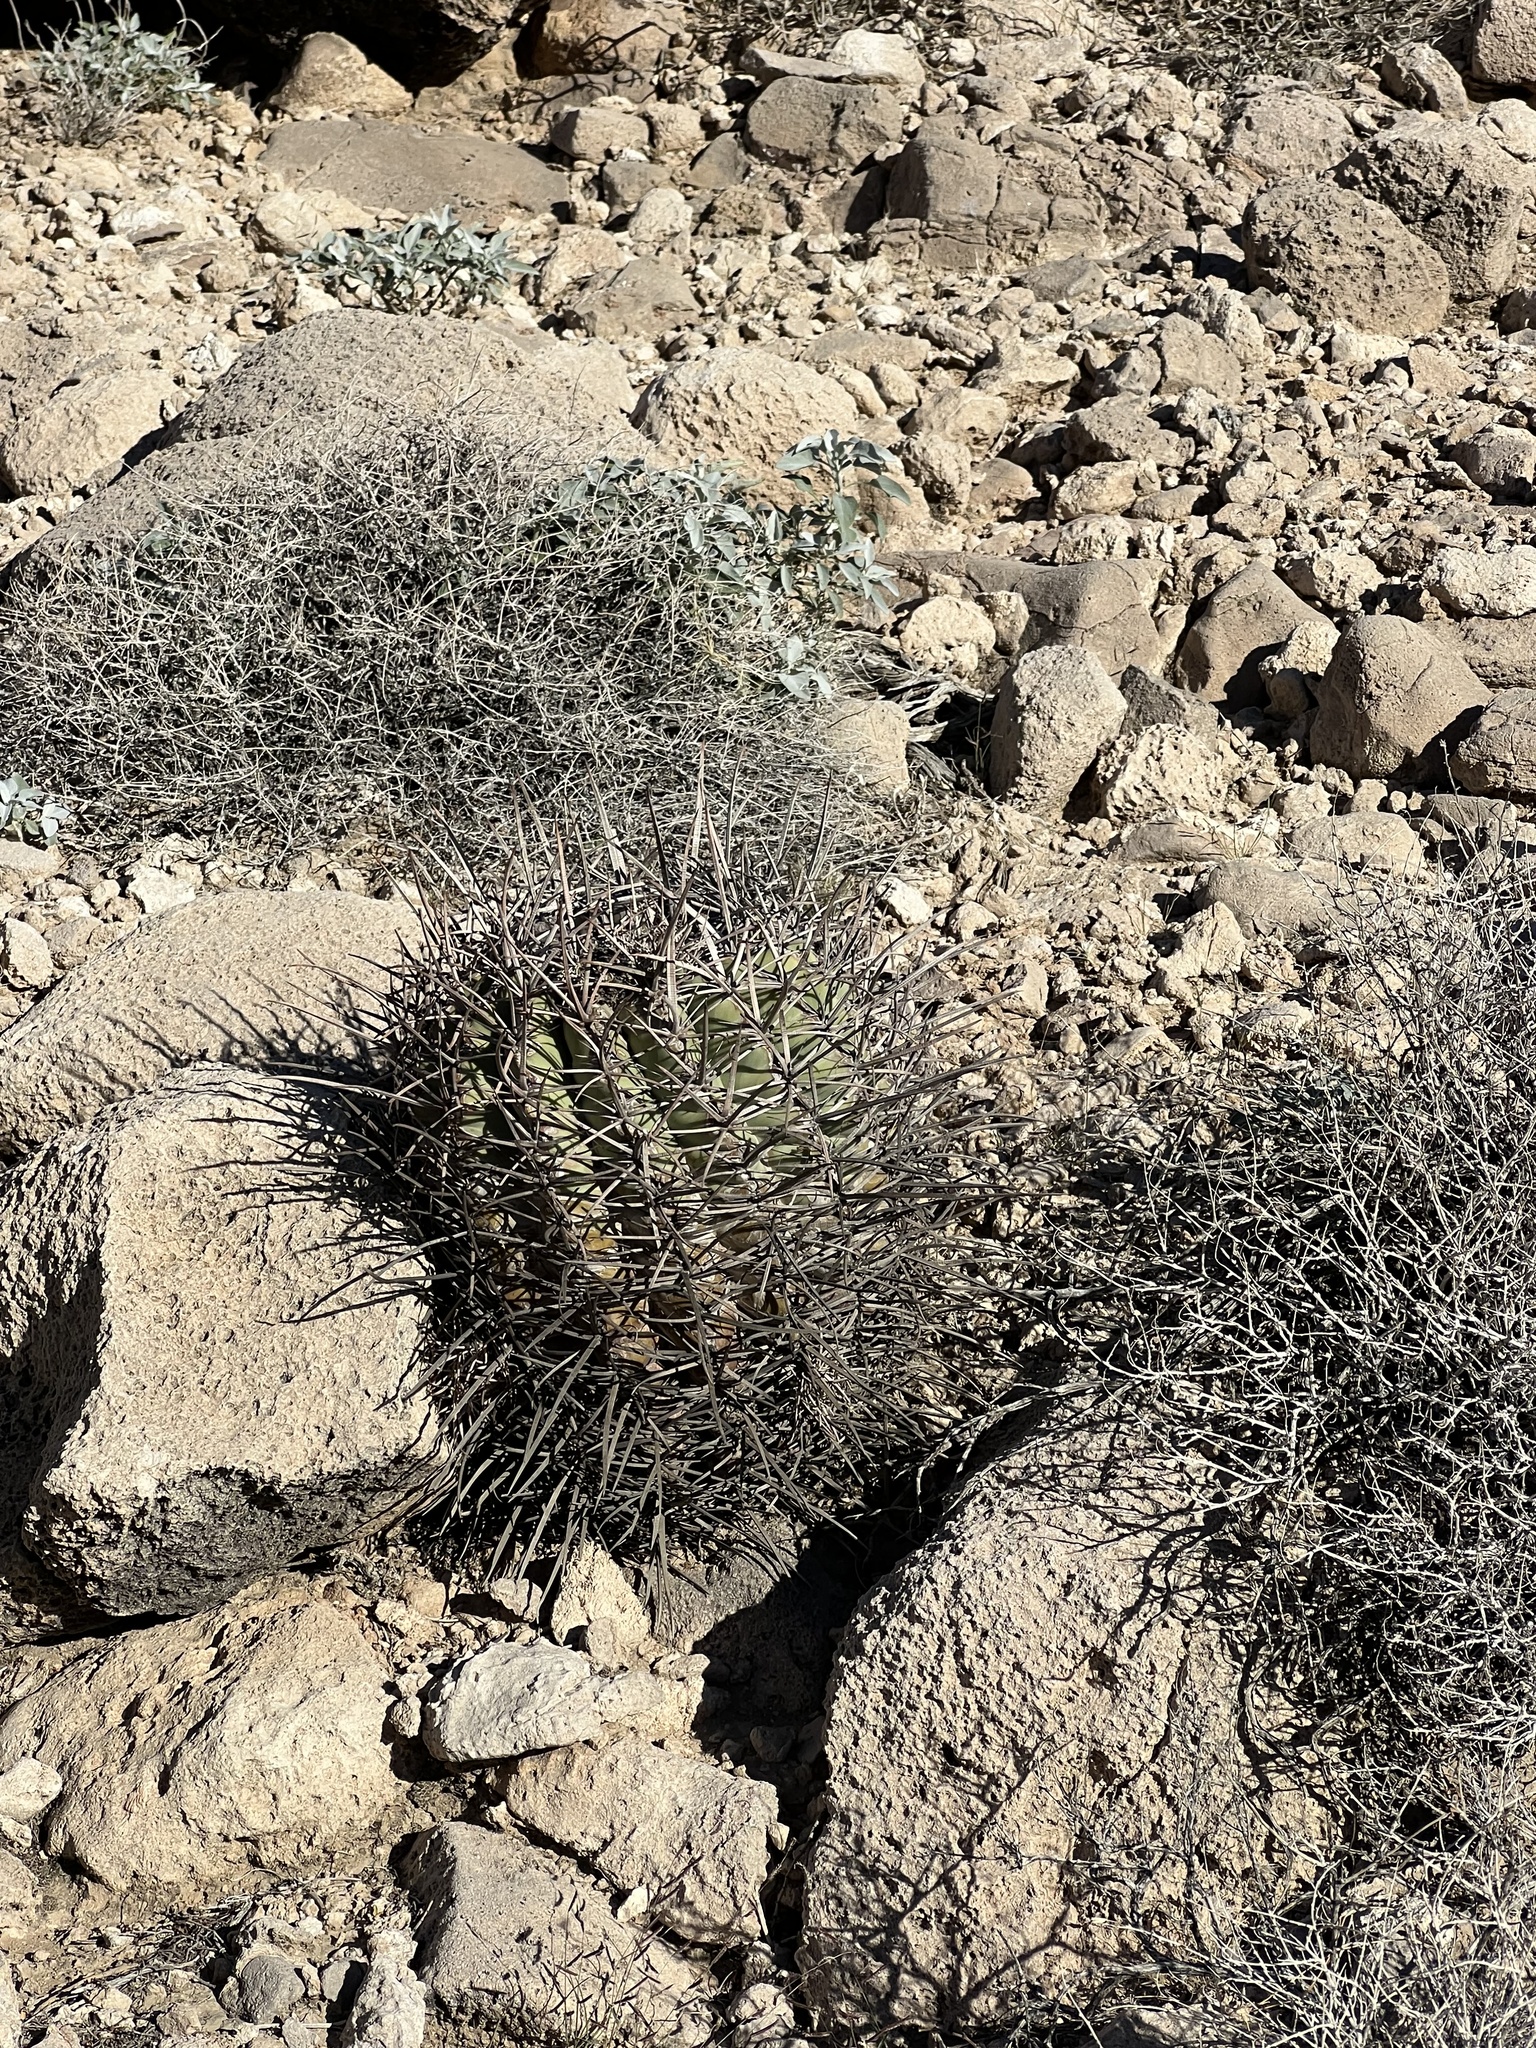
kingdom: Plantae
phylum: Tracheophyta
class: Magnoliopsida
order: Caryophyllales
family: Cactaceae
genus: Echinocactus
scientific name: Echinocactus polycephalus
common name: Cottontop cactus
